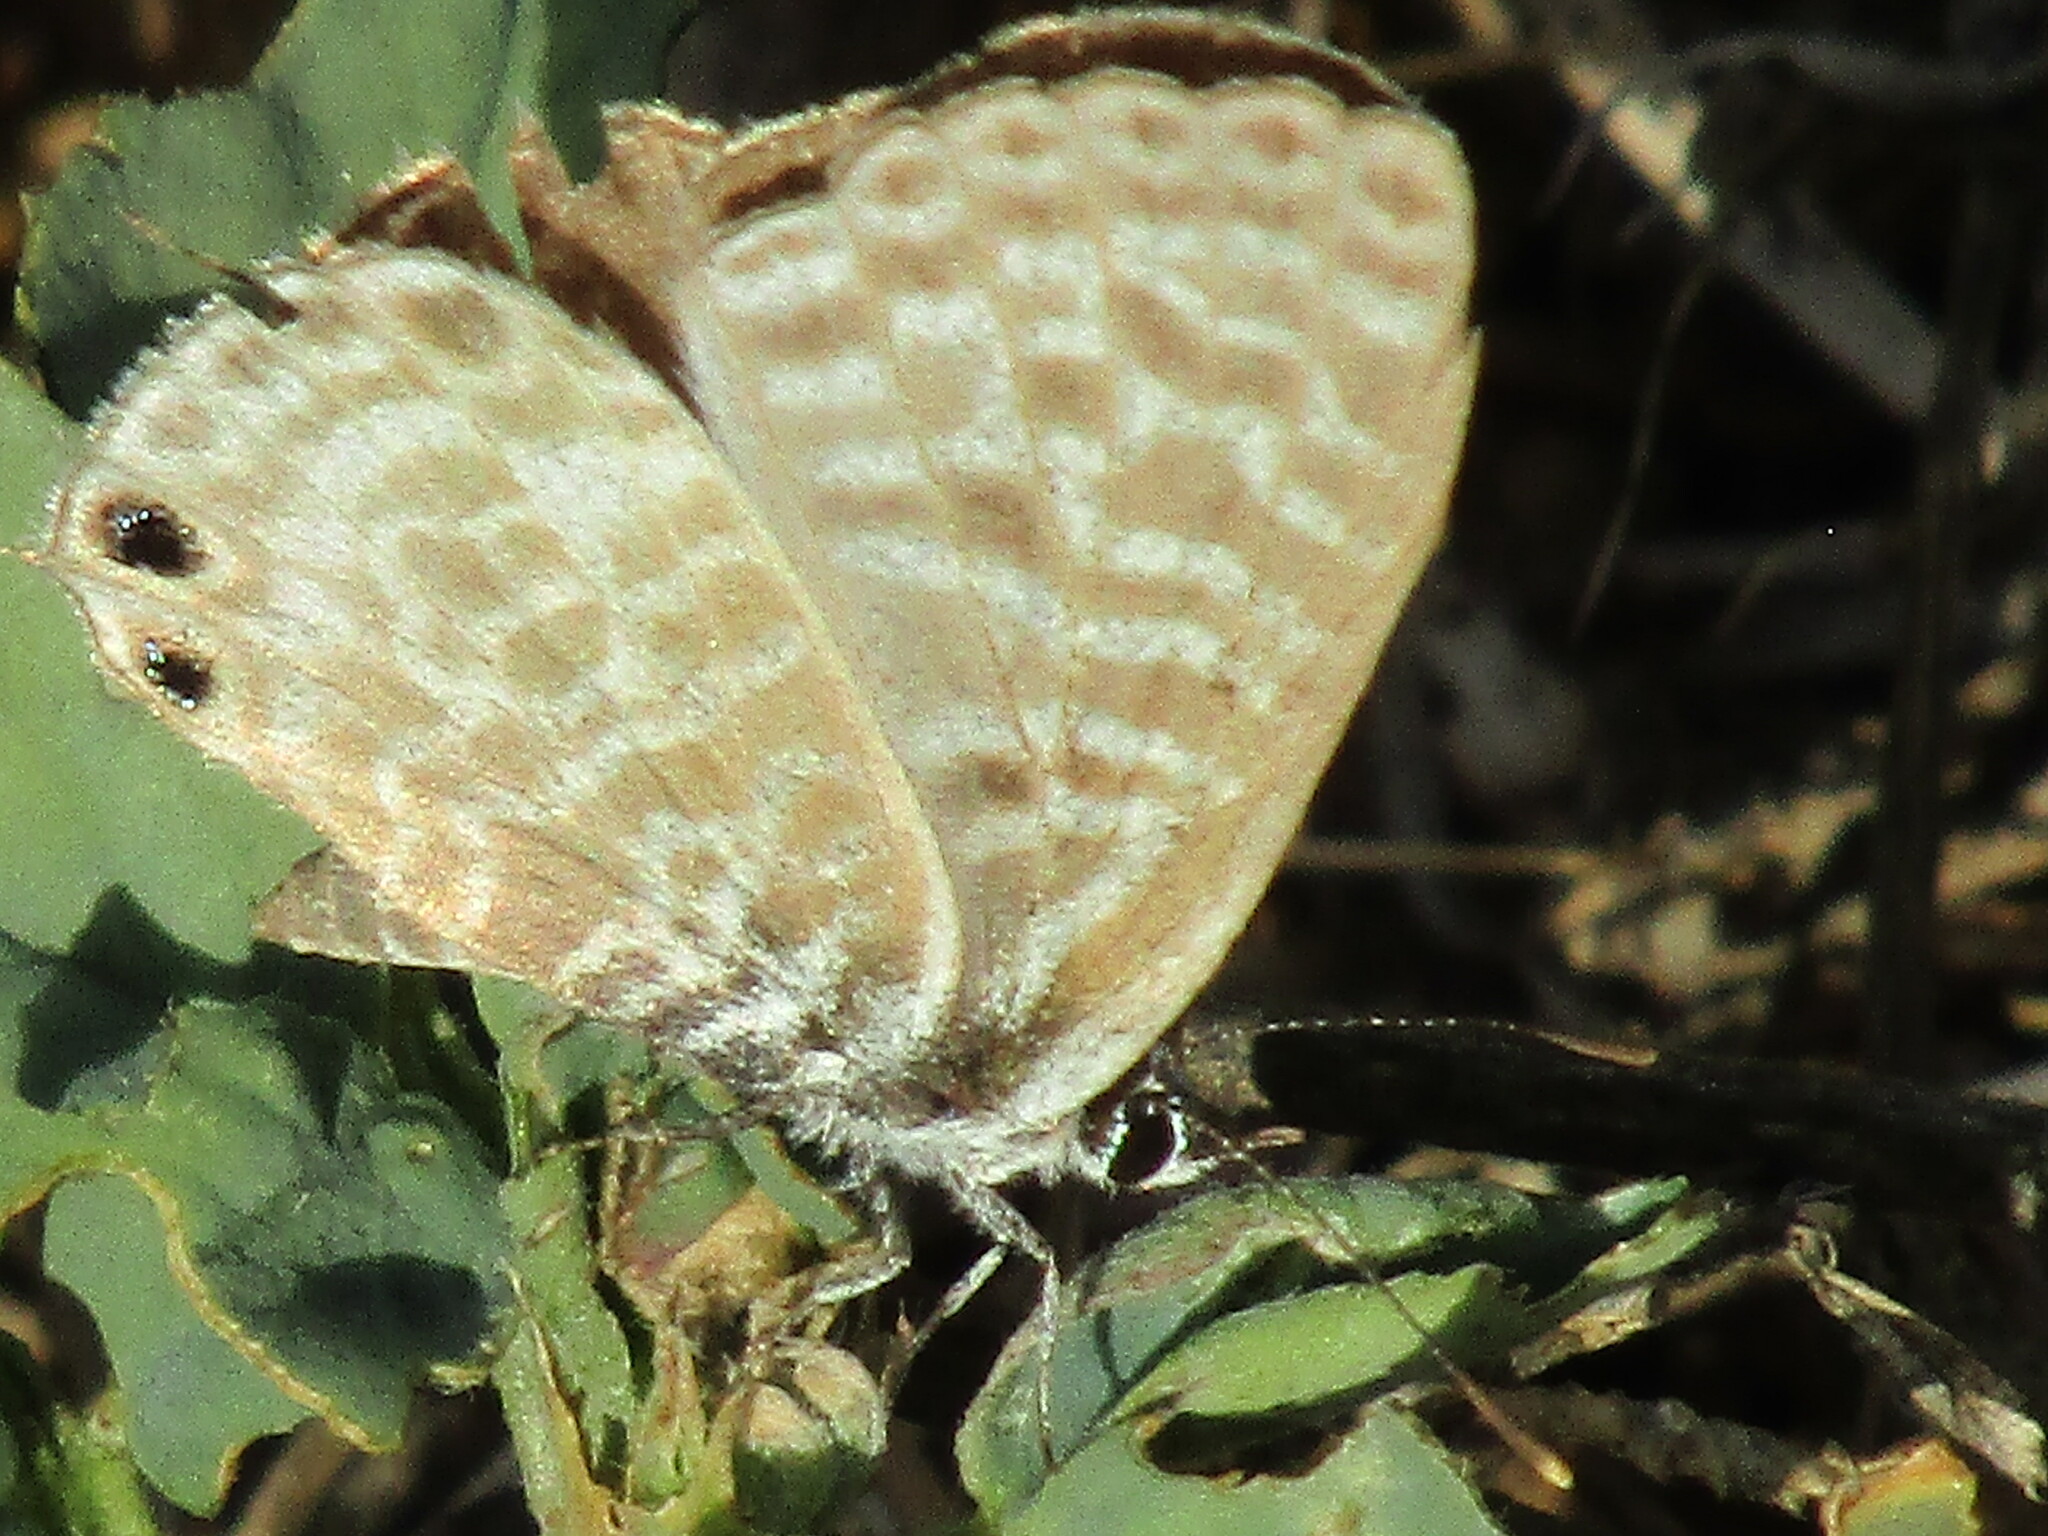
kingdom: Animalia
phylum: Arthropoda
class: Insecta
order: Lepidoptera
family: Lycaenidae
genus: Leptotes
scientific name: Leptotes pirithous
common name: Lang's short-tailed blue
